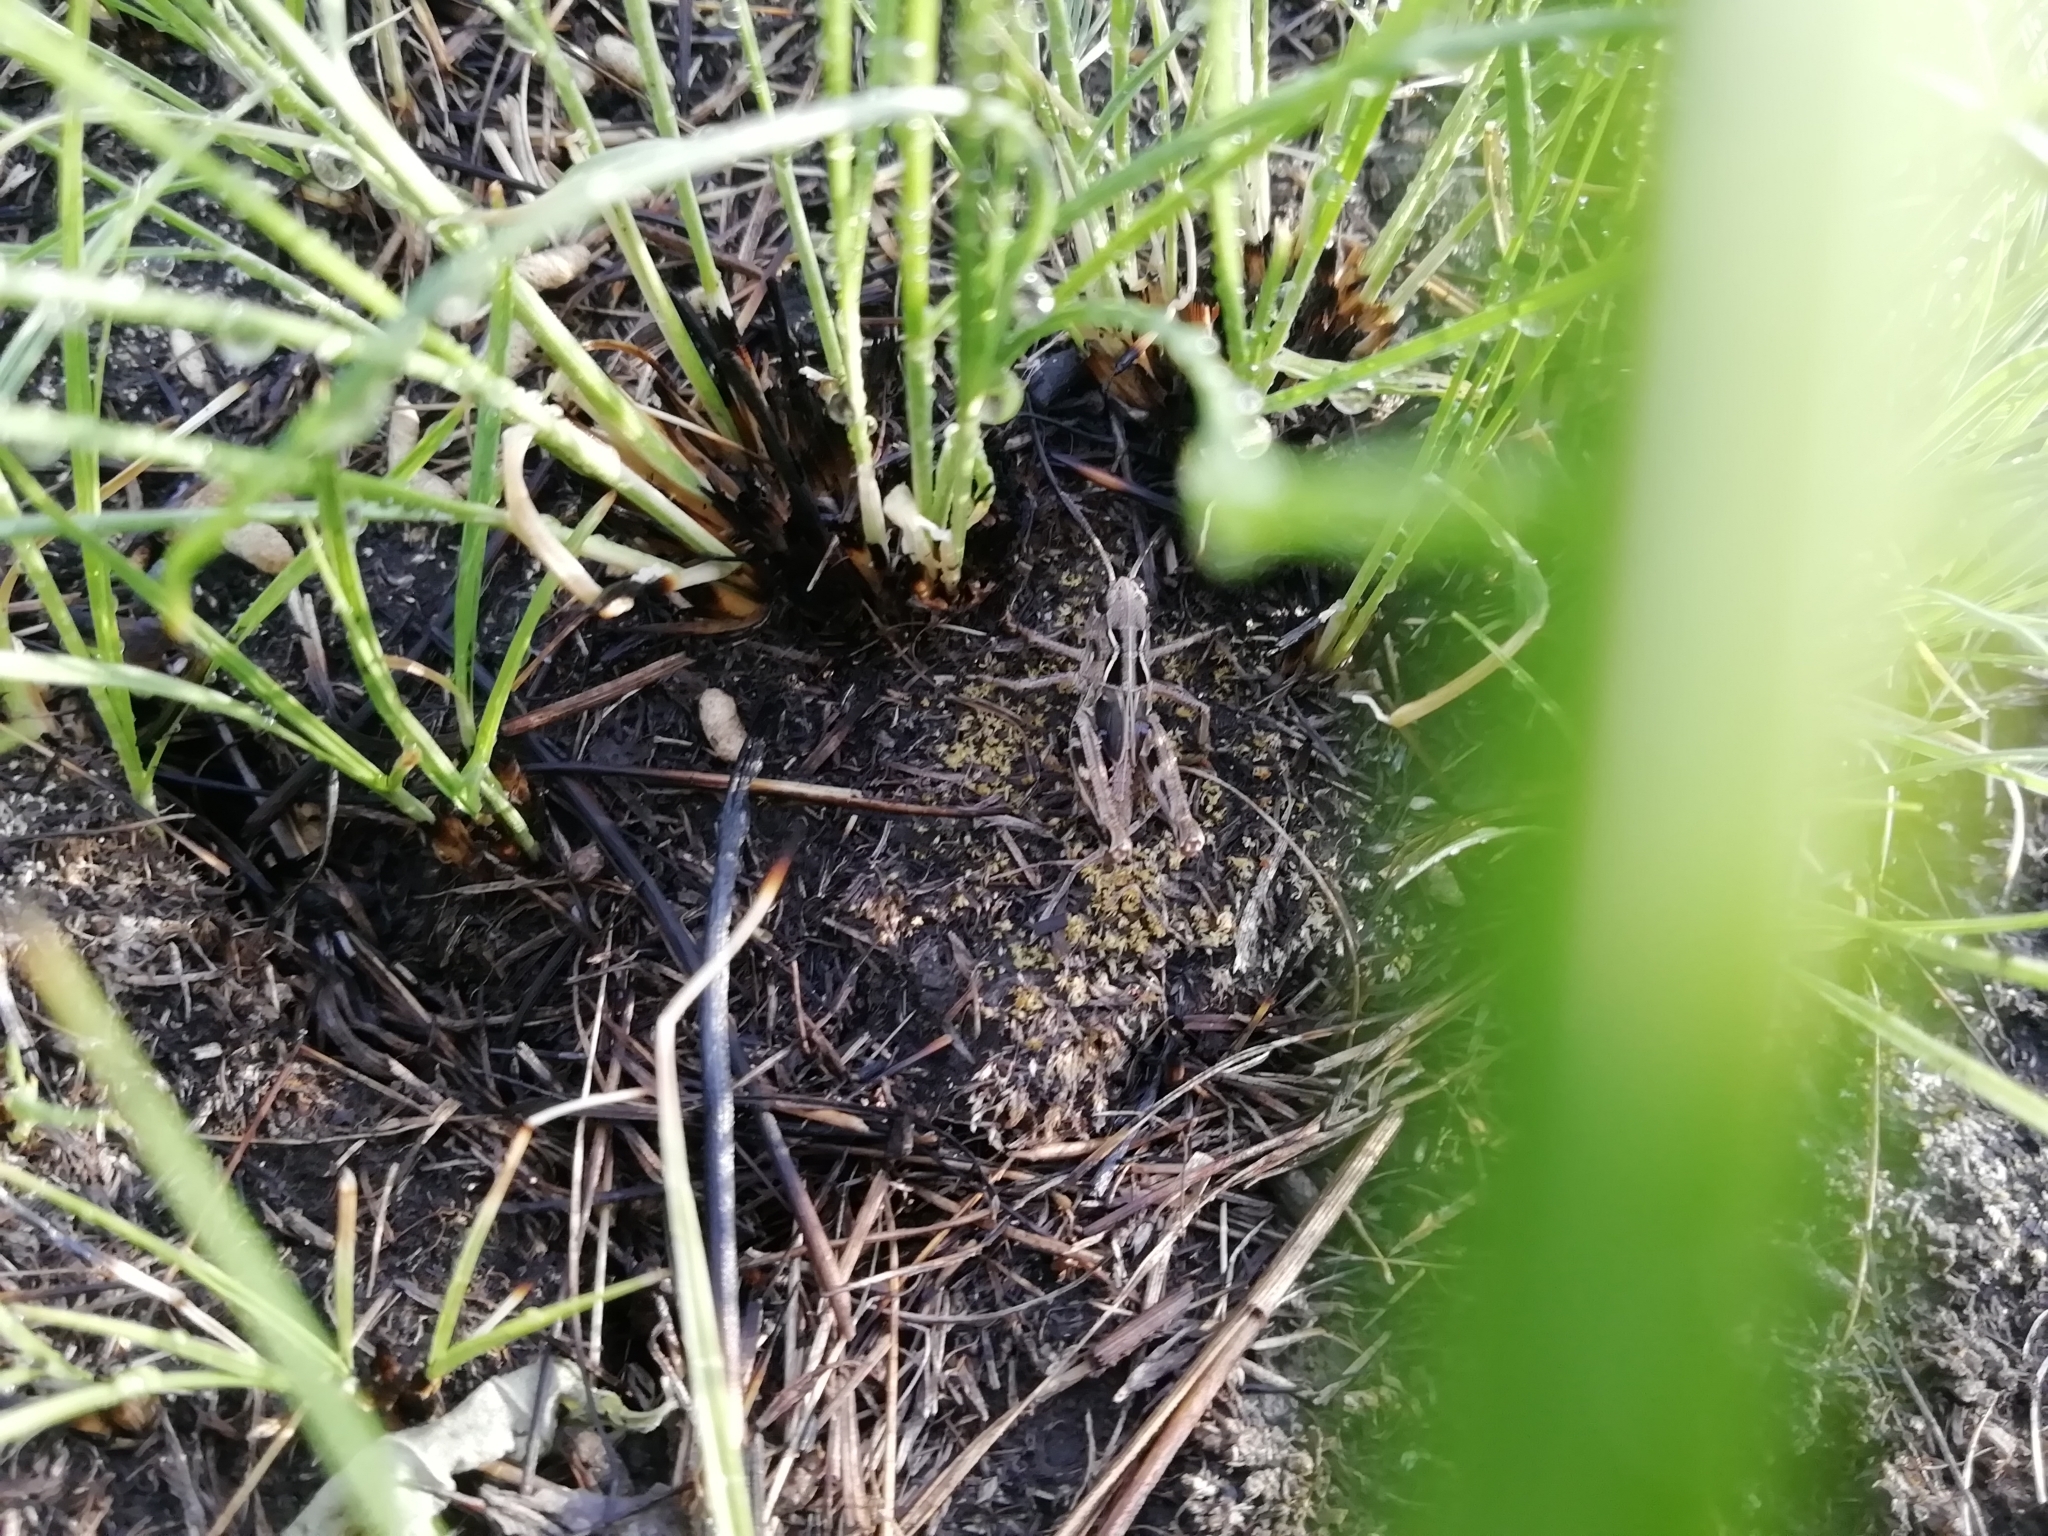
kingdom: Animalia
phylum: Arthropoda
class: Insecta
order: Orthoptera
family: Acrididae
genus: Arcyptera
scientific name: Arcyptera microptera
